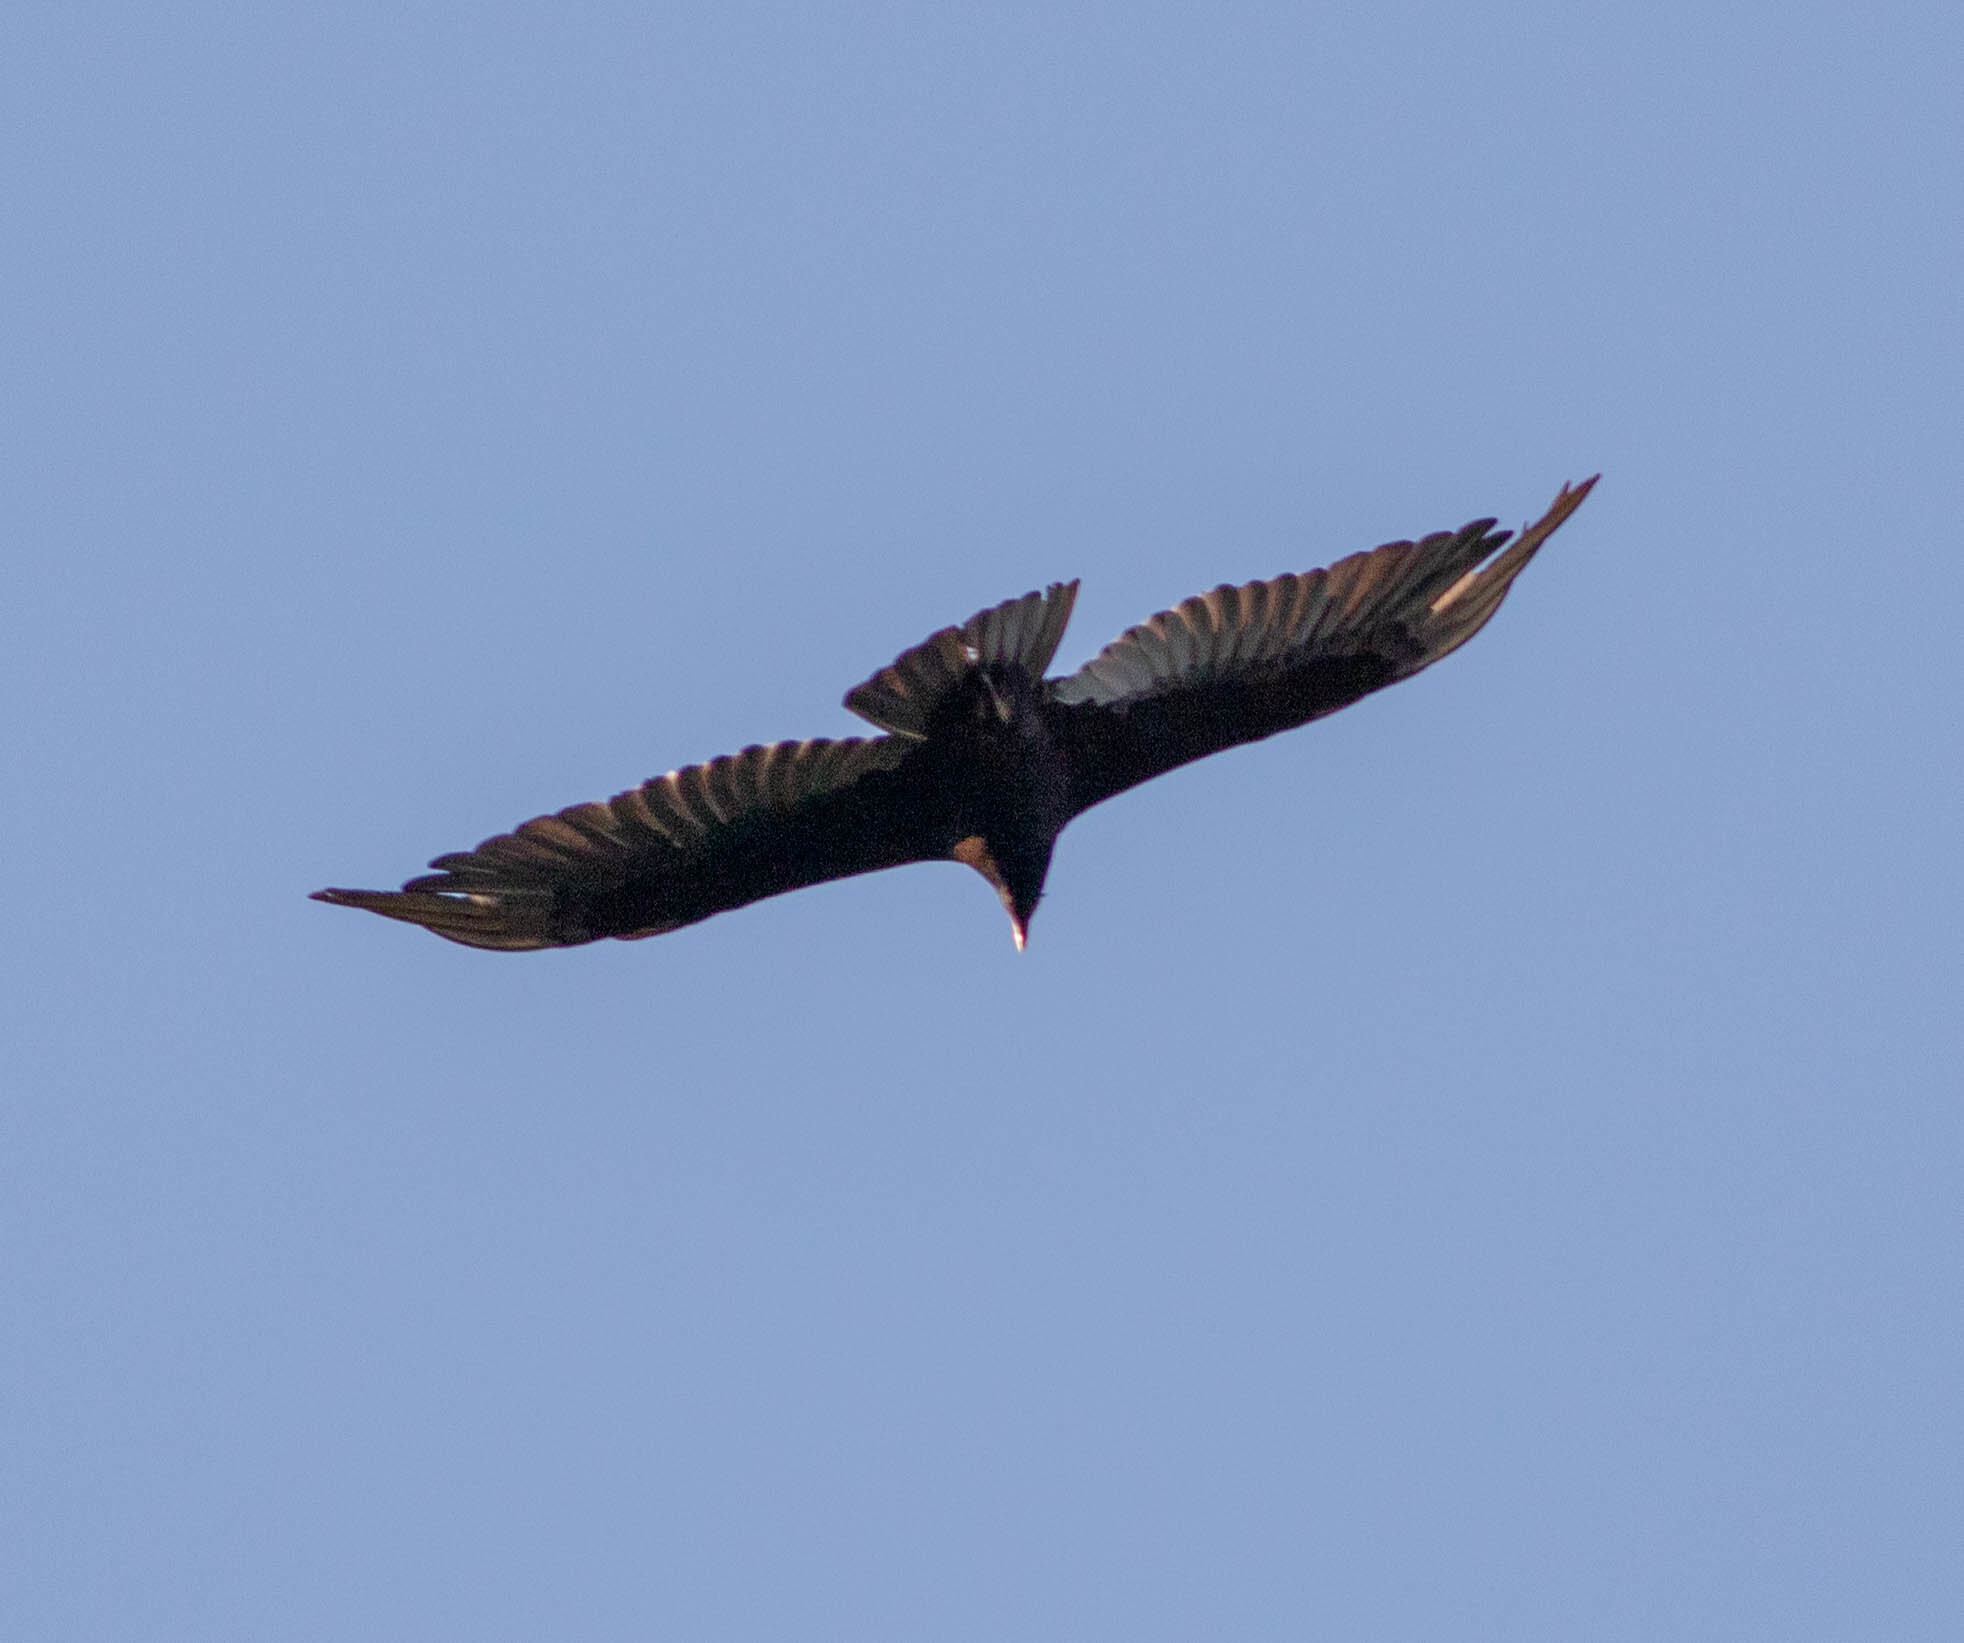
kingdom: Animalia
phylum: Chordata
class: Aves
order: Accipitriformes
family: Cathartidae
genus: Cathartes
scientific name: Cathartes aura
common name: Turkey vulture
